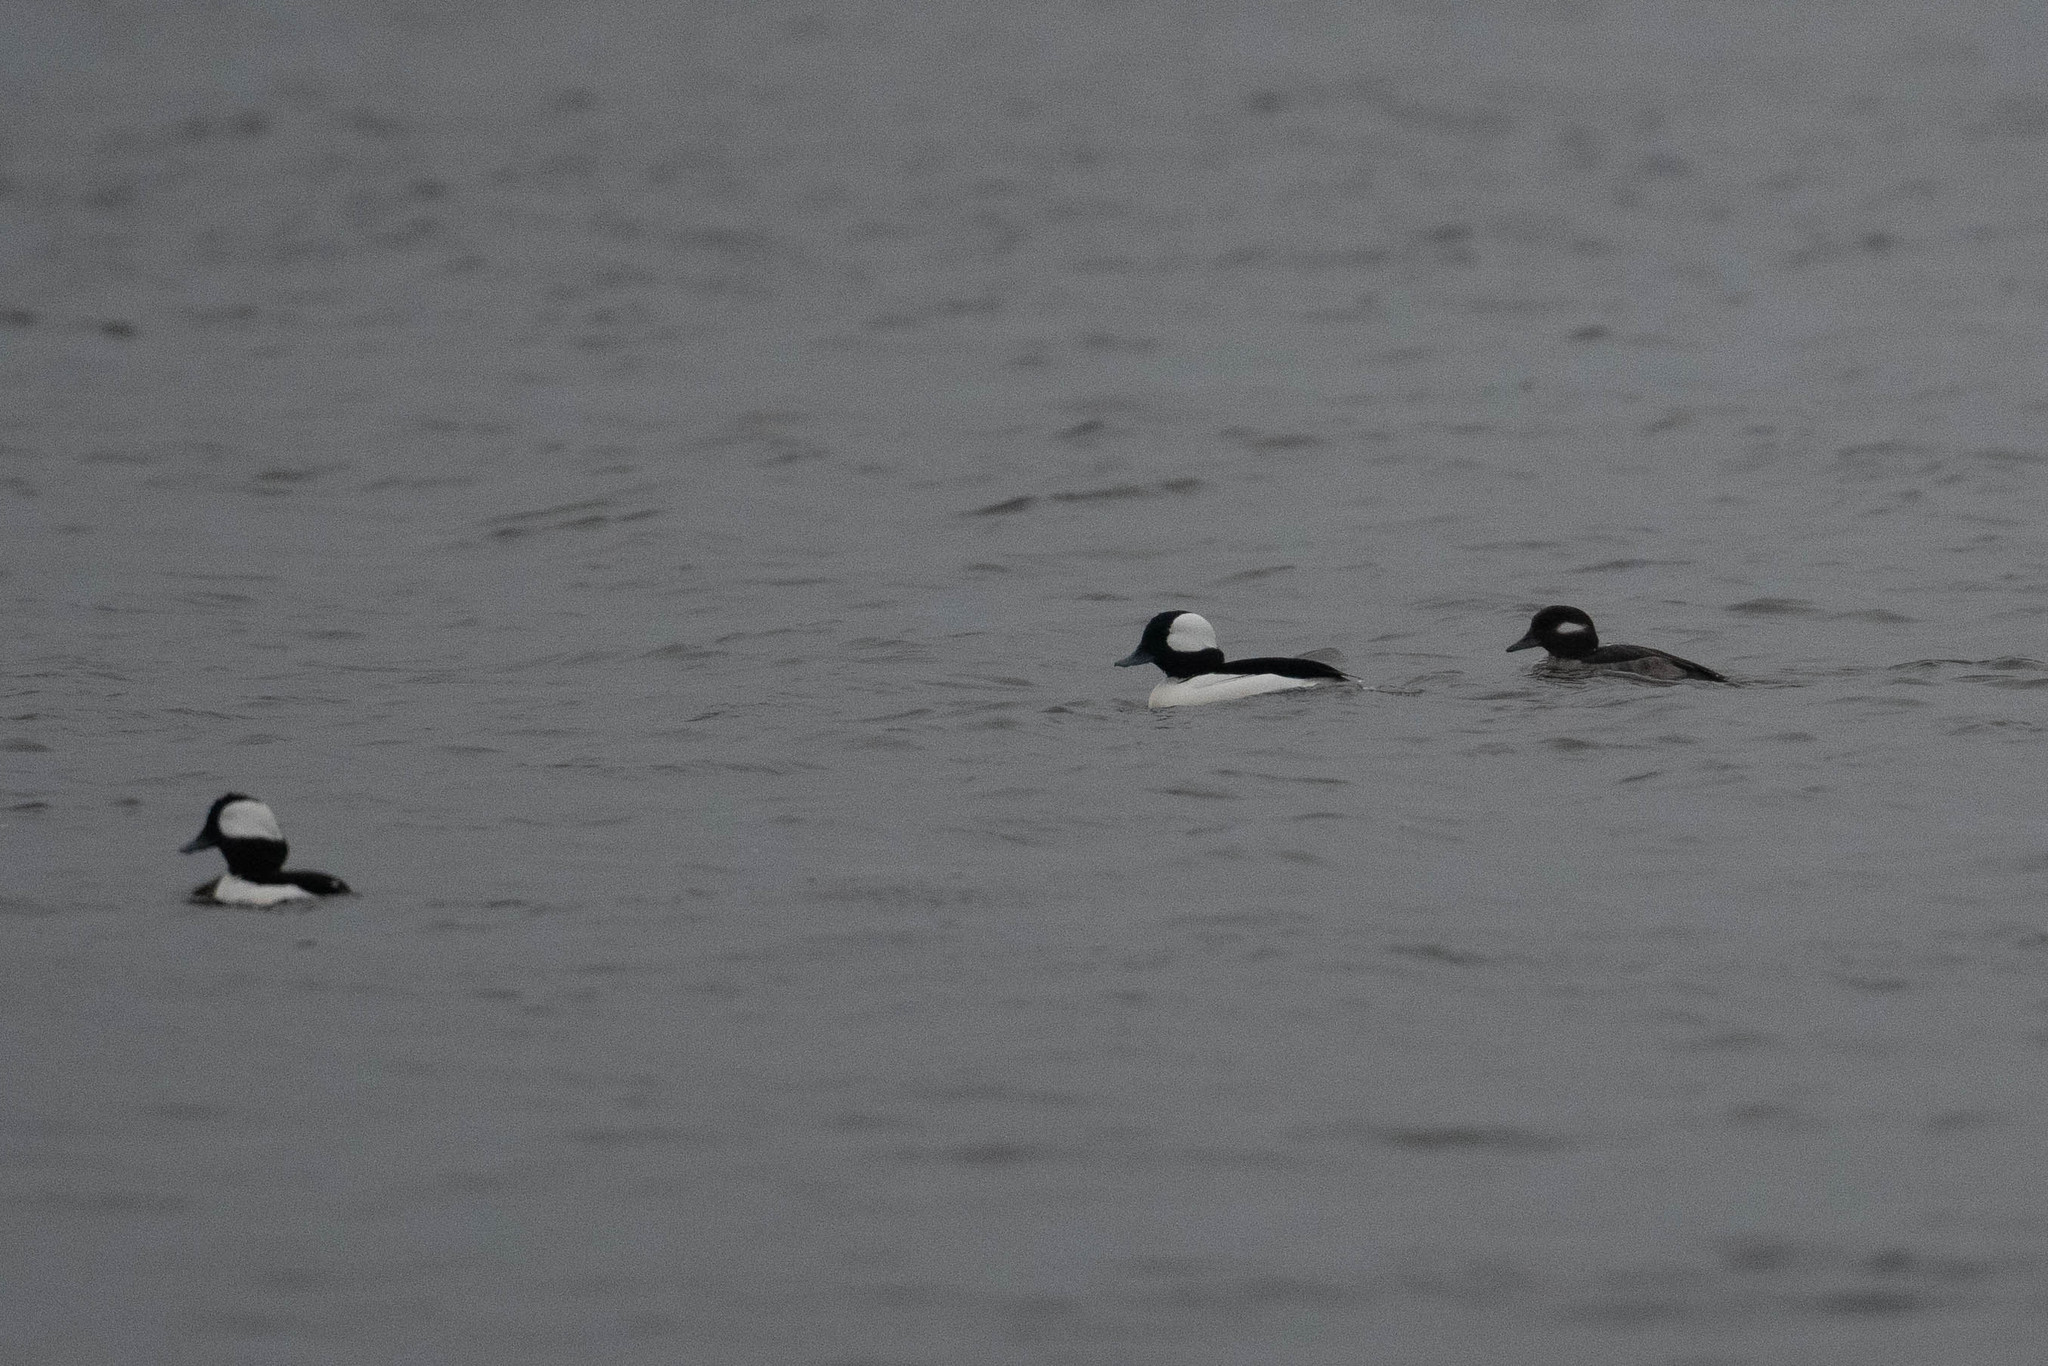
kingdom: Animalia
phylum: Chordata
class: Aves
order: Anseriformes
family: Anatidae
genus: Bucephala
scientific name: Bucephala albeola
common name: Bufflehead
